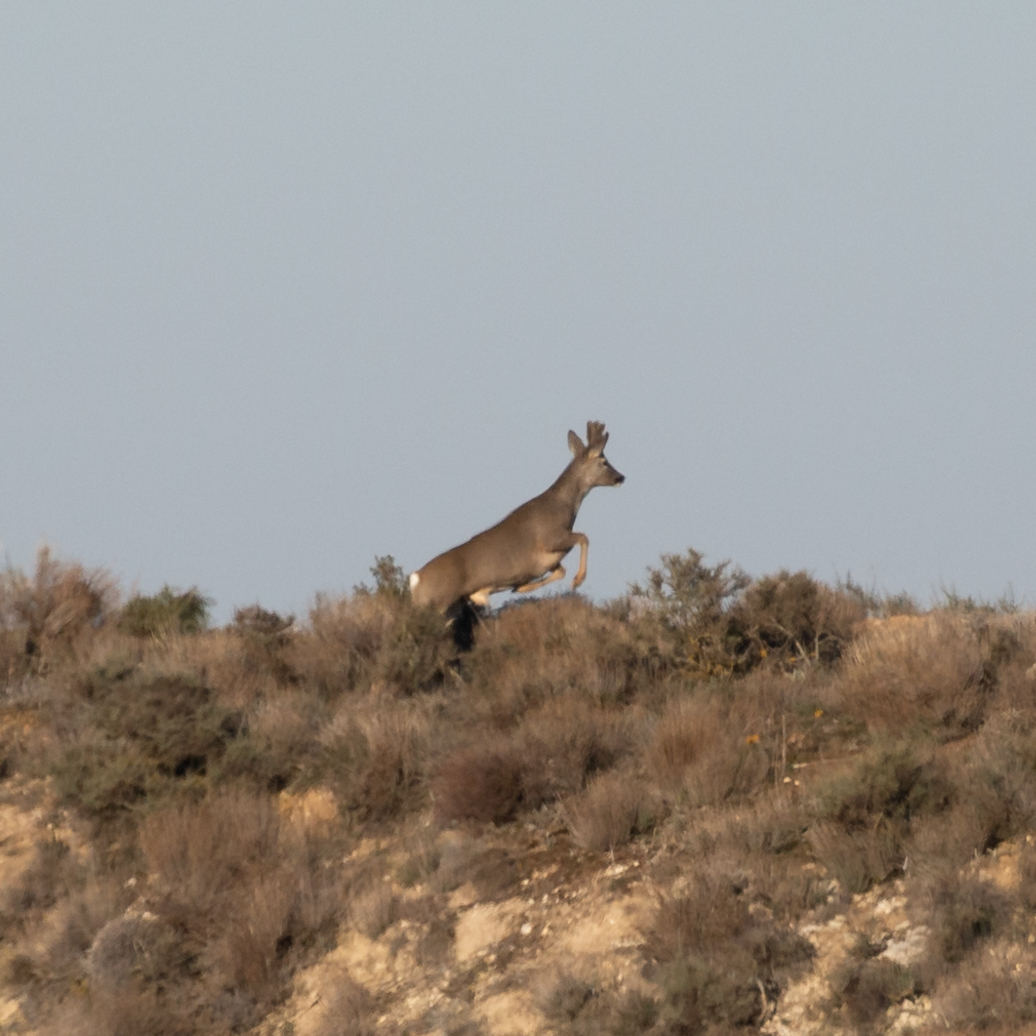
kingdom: Animalia
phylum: Chordata
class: Mammalia
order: Artiodactyla
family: Cervidae
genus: Capreolus
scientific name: Capreolus capreolus
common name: Western roe deer
